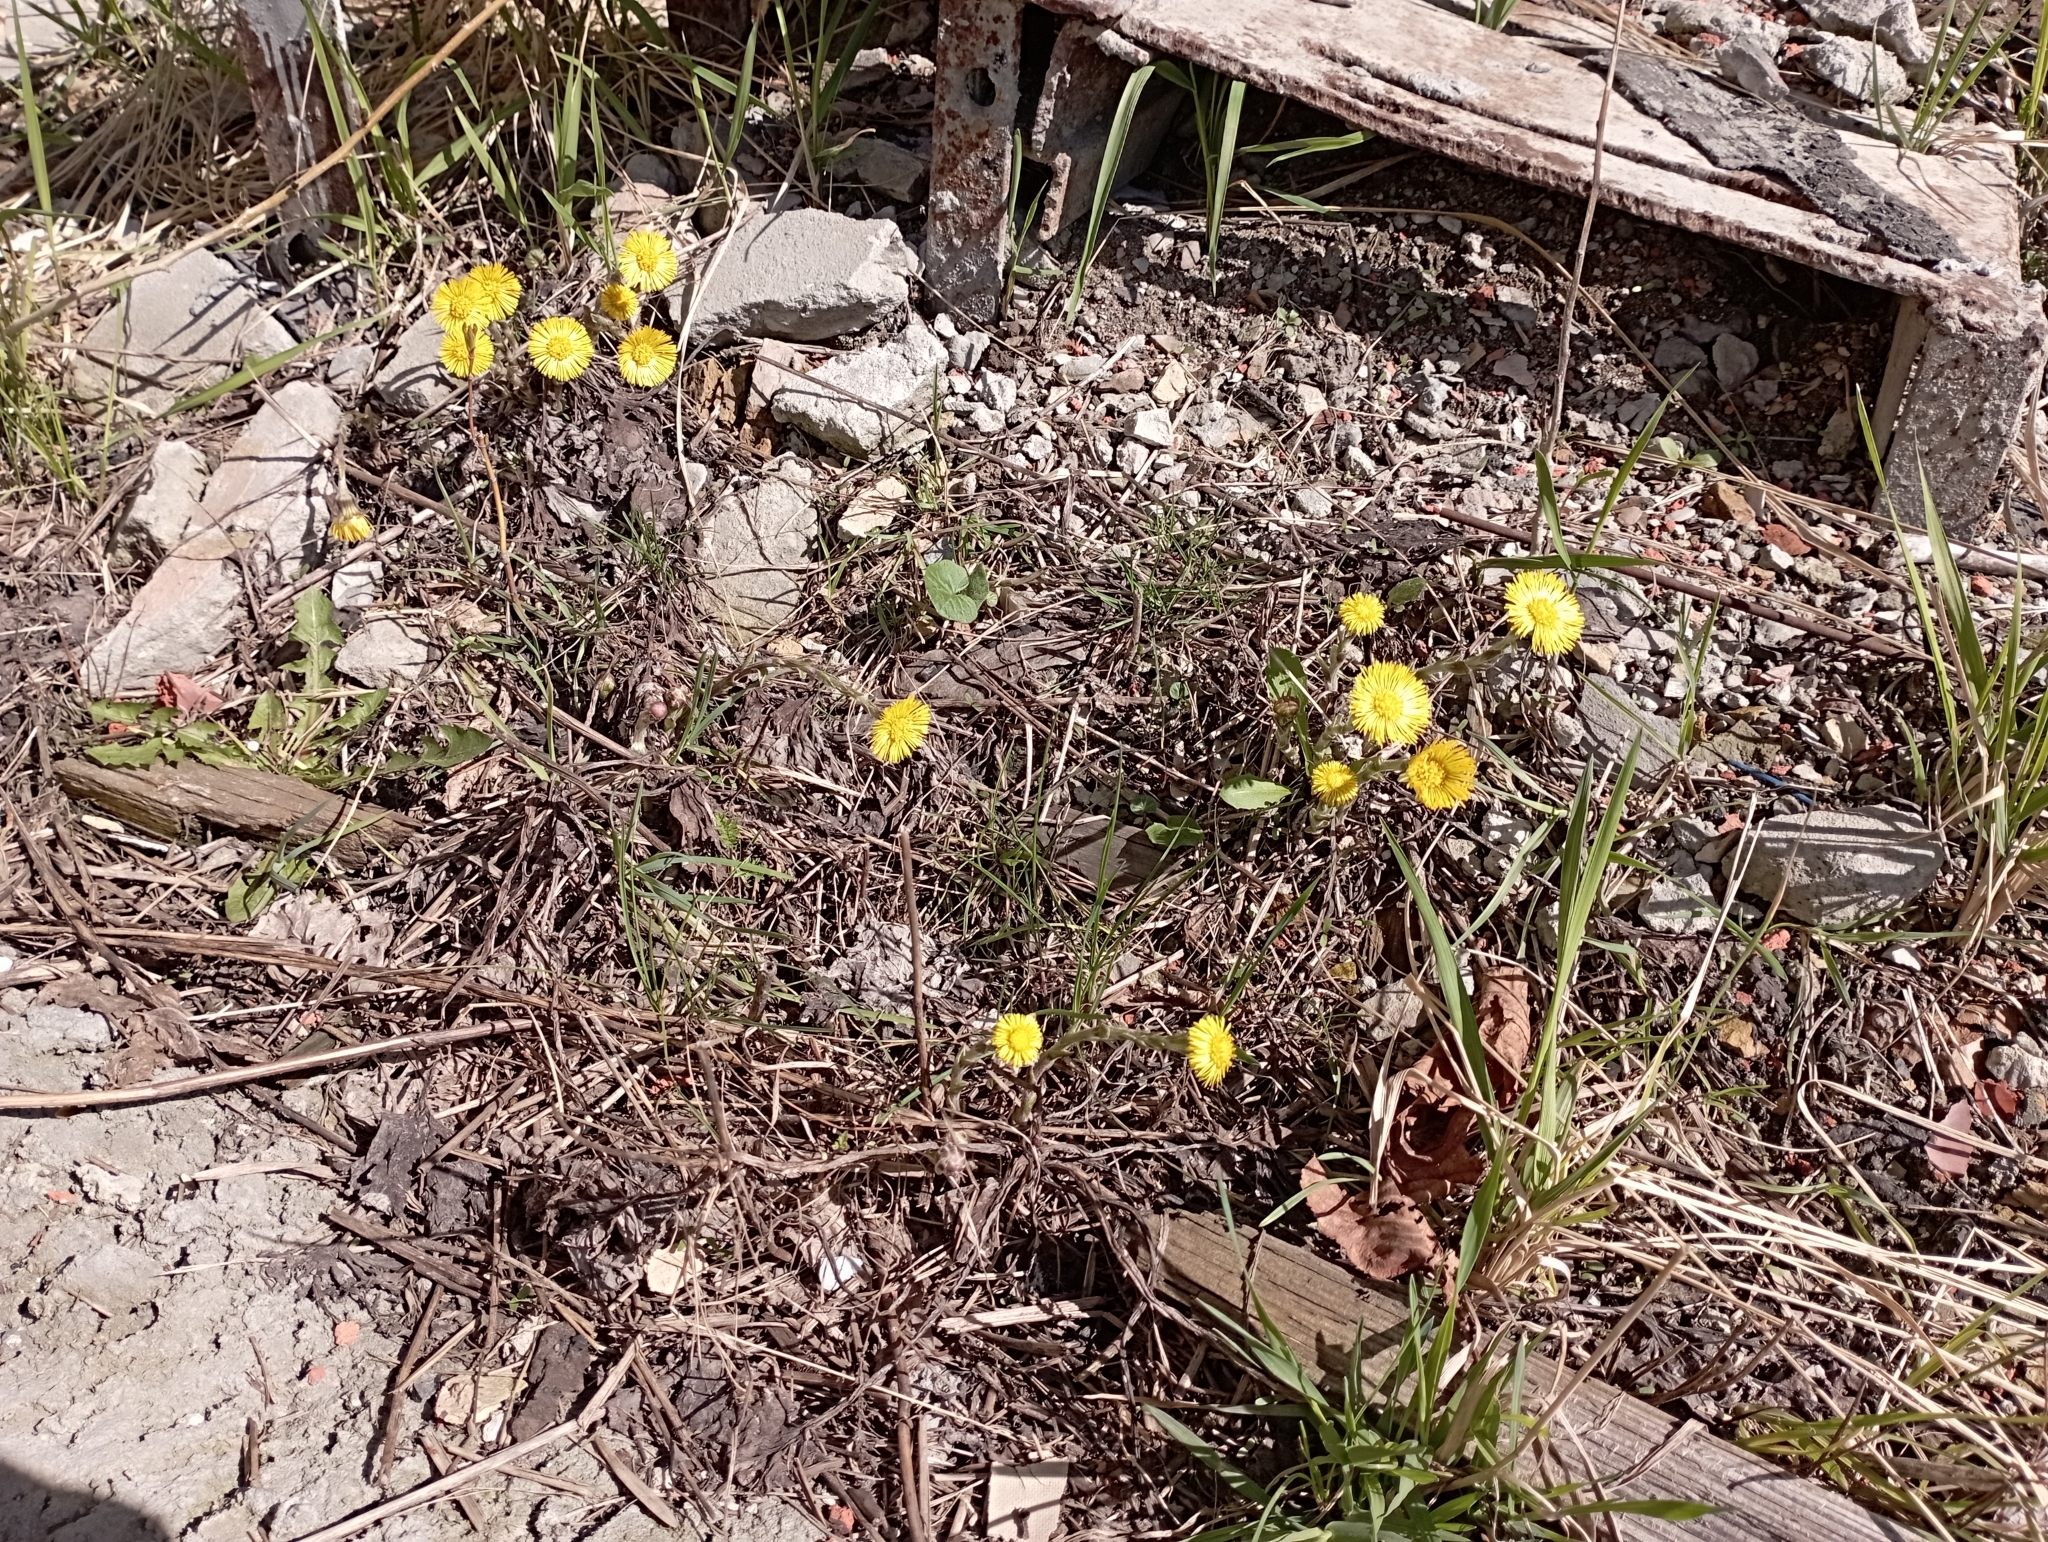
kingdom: Plantae
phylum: Tracheophyta
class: Magnoliopsida
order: Asterales
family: Asteraceae
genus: Tussilago
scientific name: Tussilago farfara
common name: Coltsfoot
